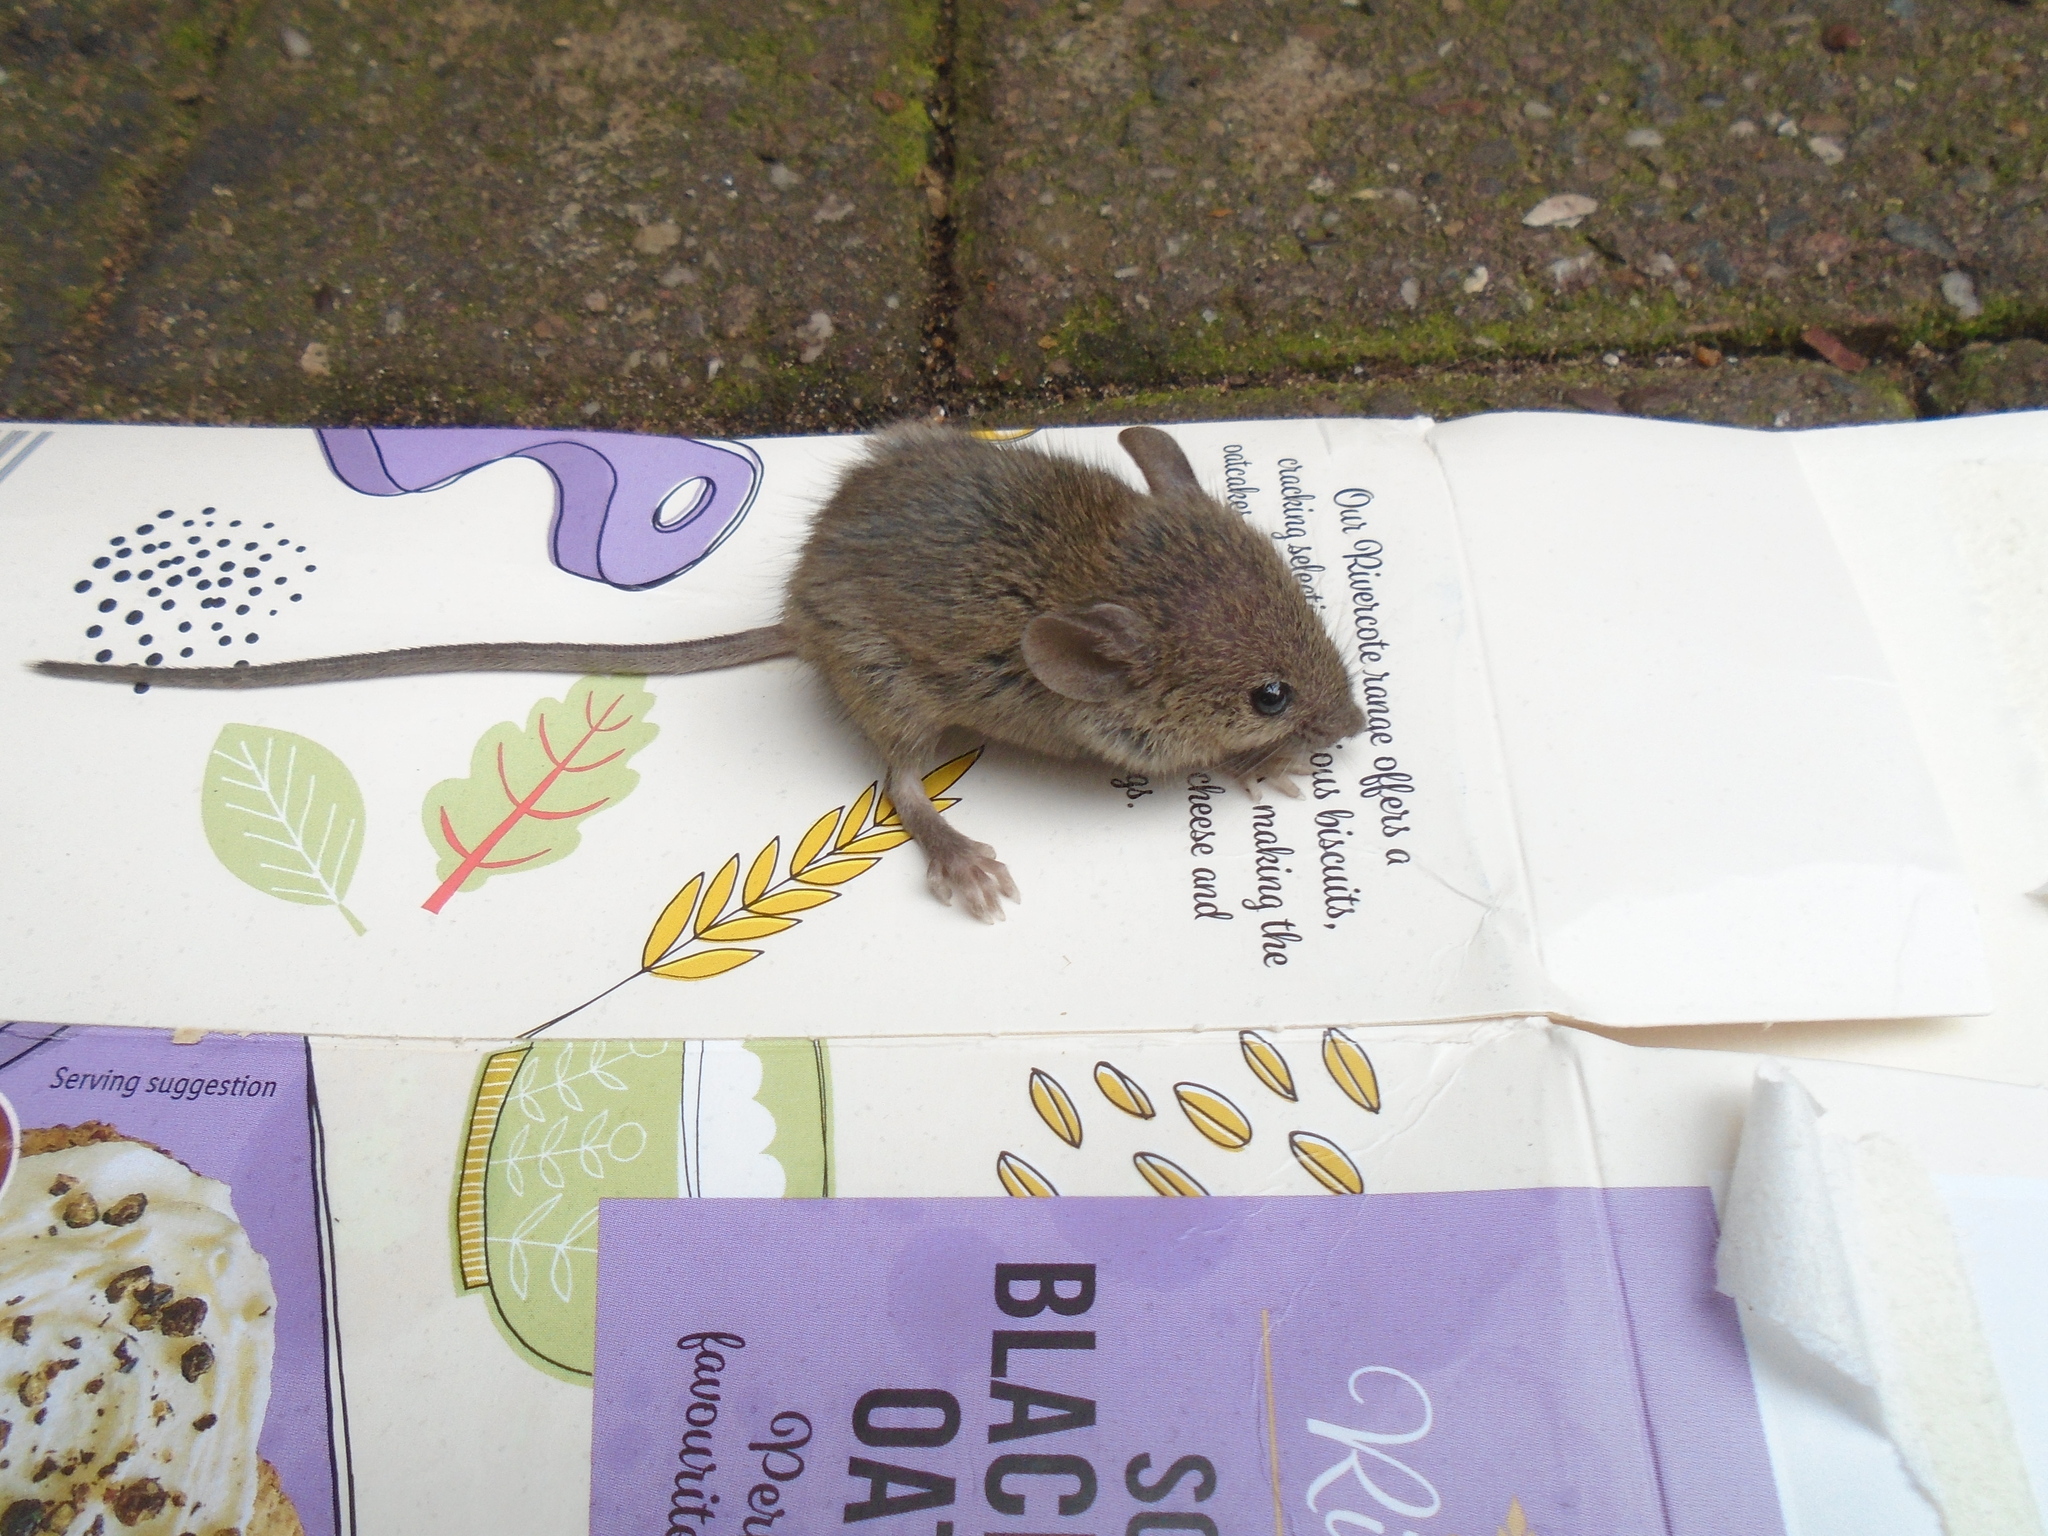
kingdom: Animalia
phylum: Chordata
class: Mammalia
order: Rodentia
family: Muridae
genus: Mus
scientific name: Mus musculus
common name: House mouse
